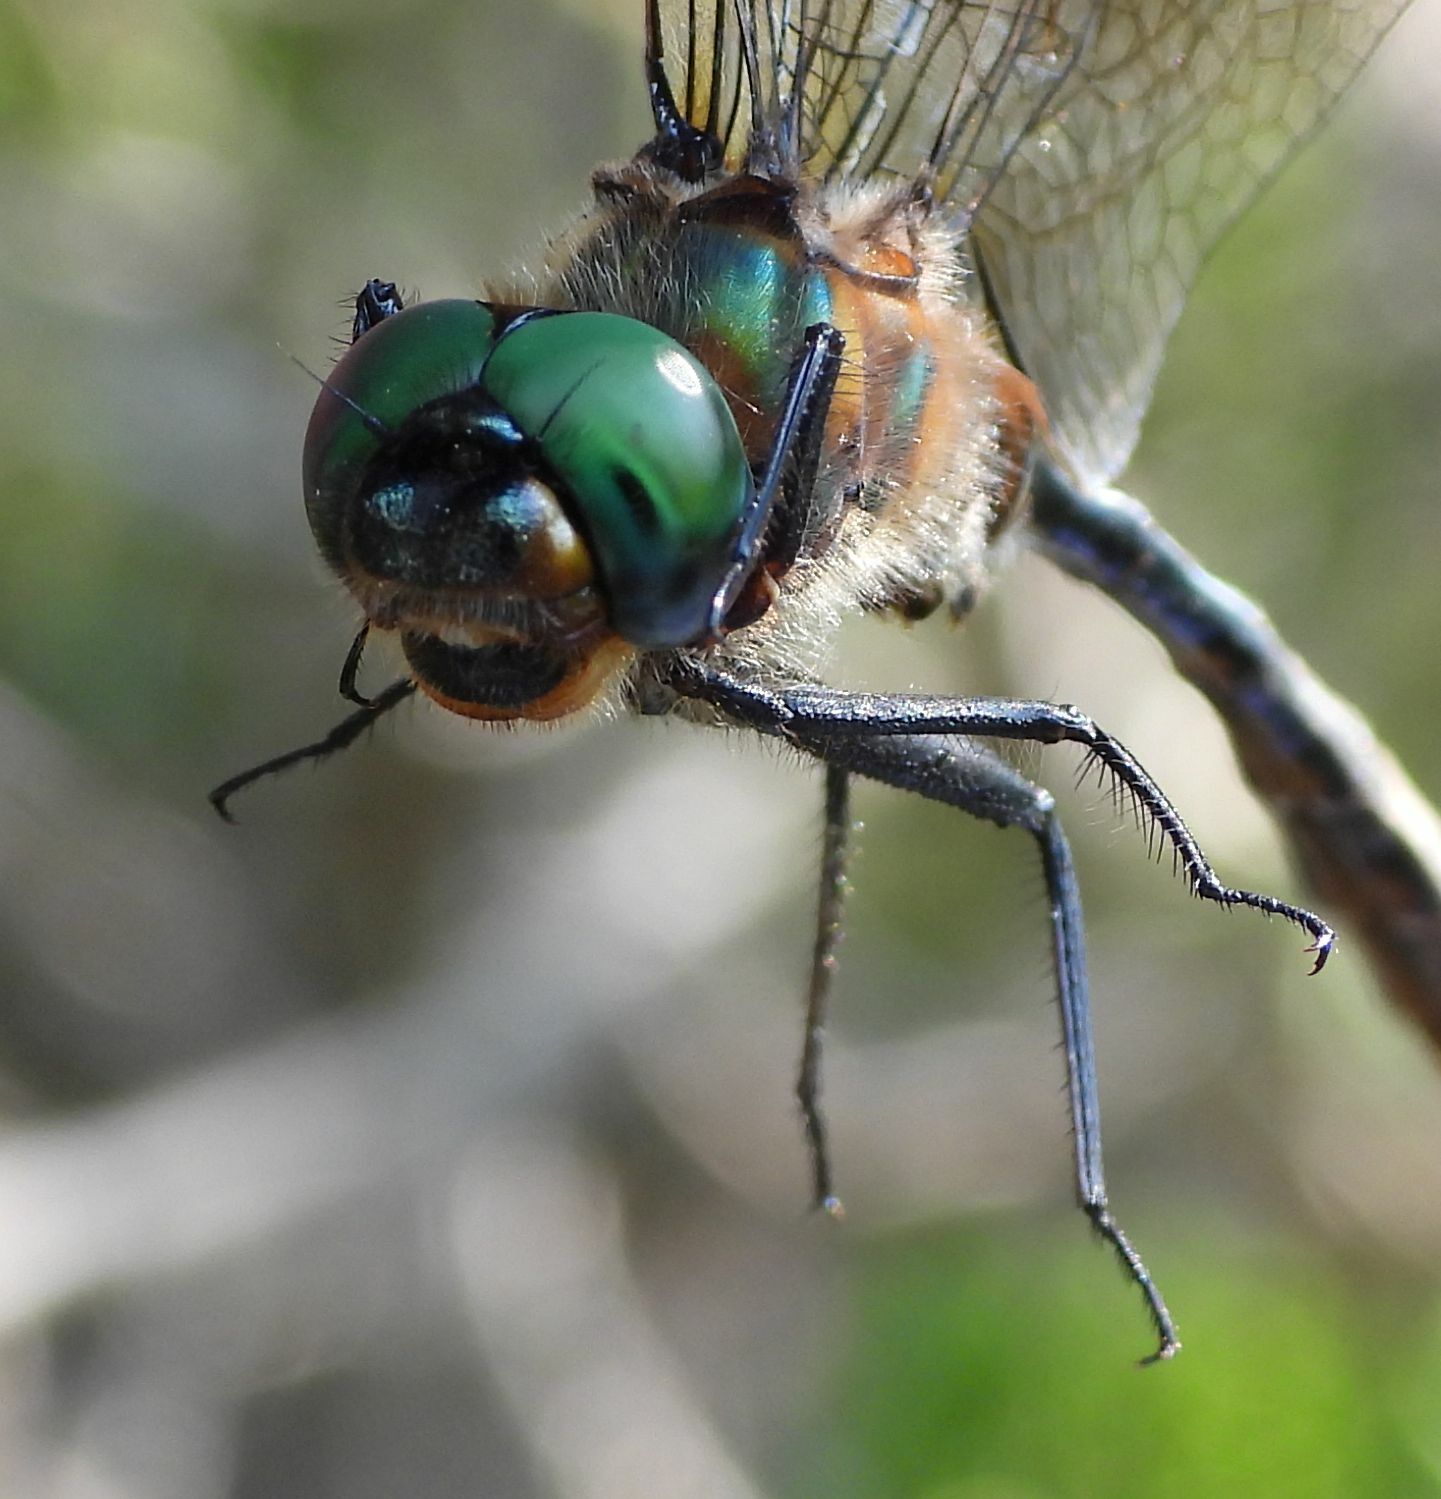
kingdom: Animalia
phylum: Arthropoda
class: Insecta
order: Odonata
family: Corduliidae
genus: Somatochlora
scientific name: Somatochlora kennedyi
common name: Kennedy's emerald
